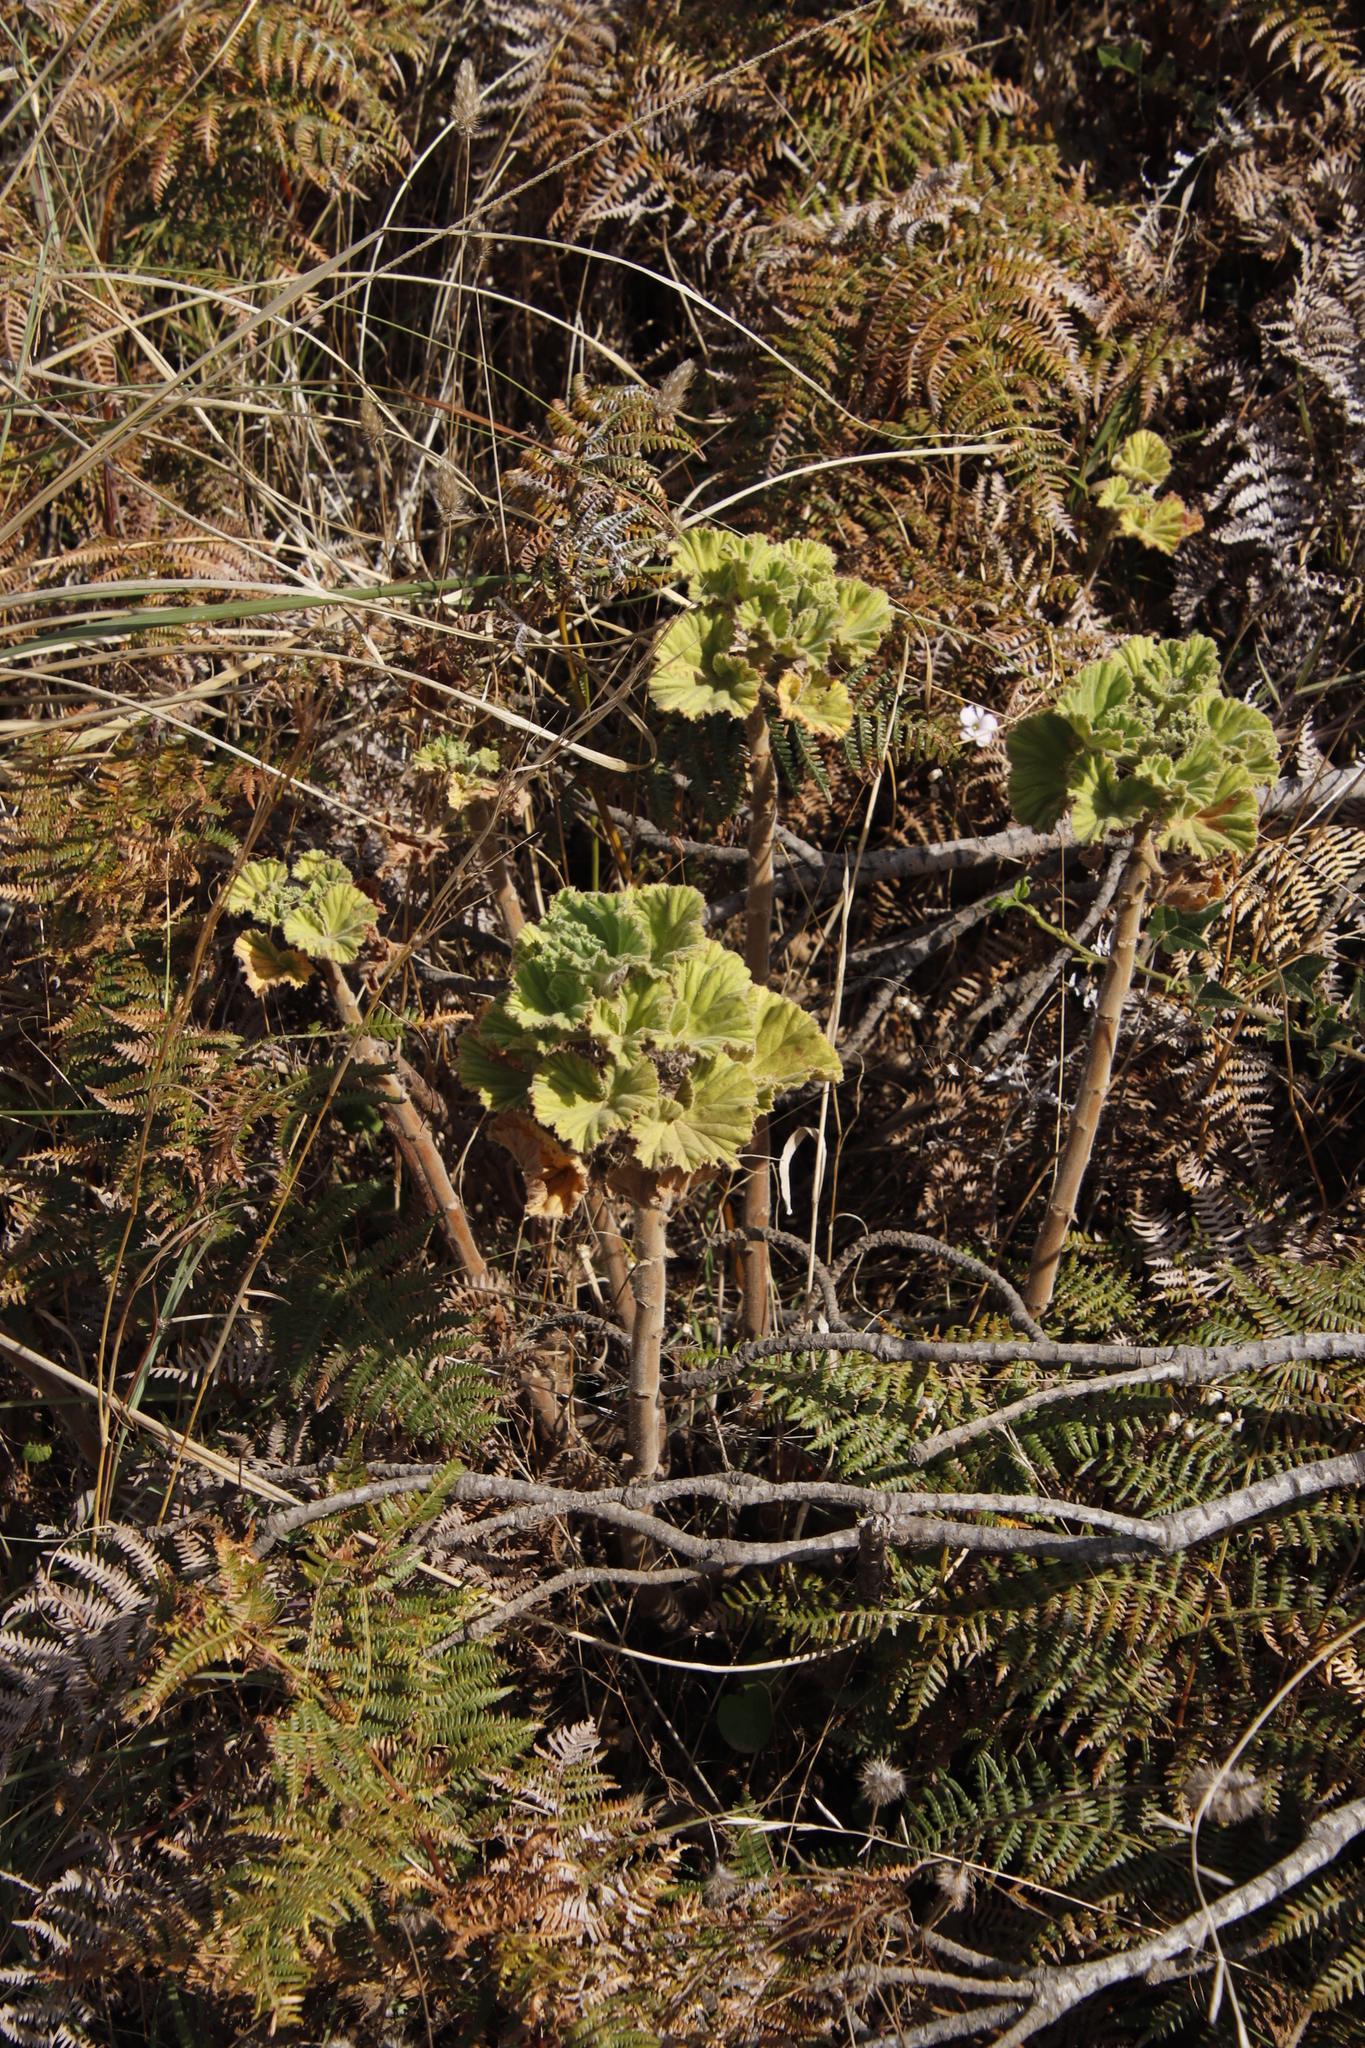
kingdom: Plantae
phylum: Tracheophyta
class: Magnoliopsida
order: Geraniales
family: Geraniaceae
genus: Pelargonium
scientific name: Pelargonium cucullatum
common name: Tree pelargonium
